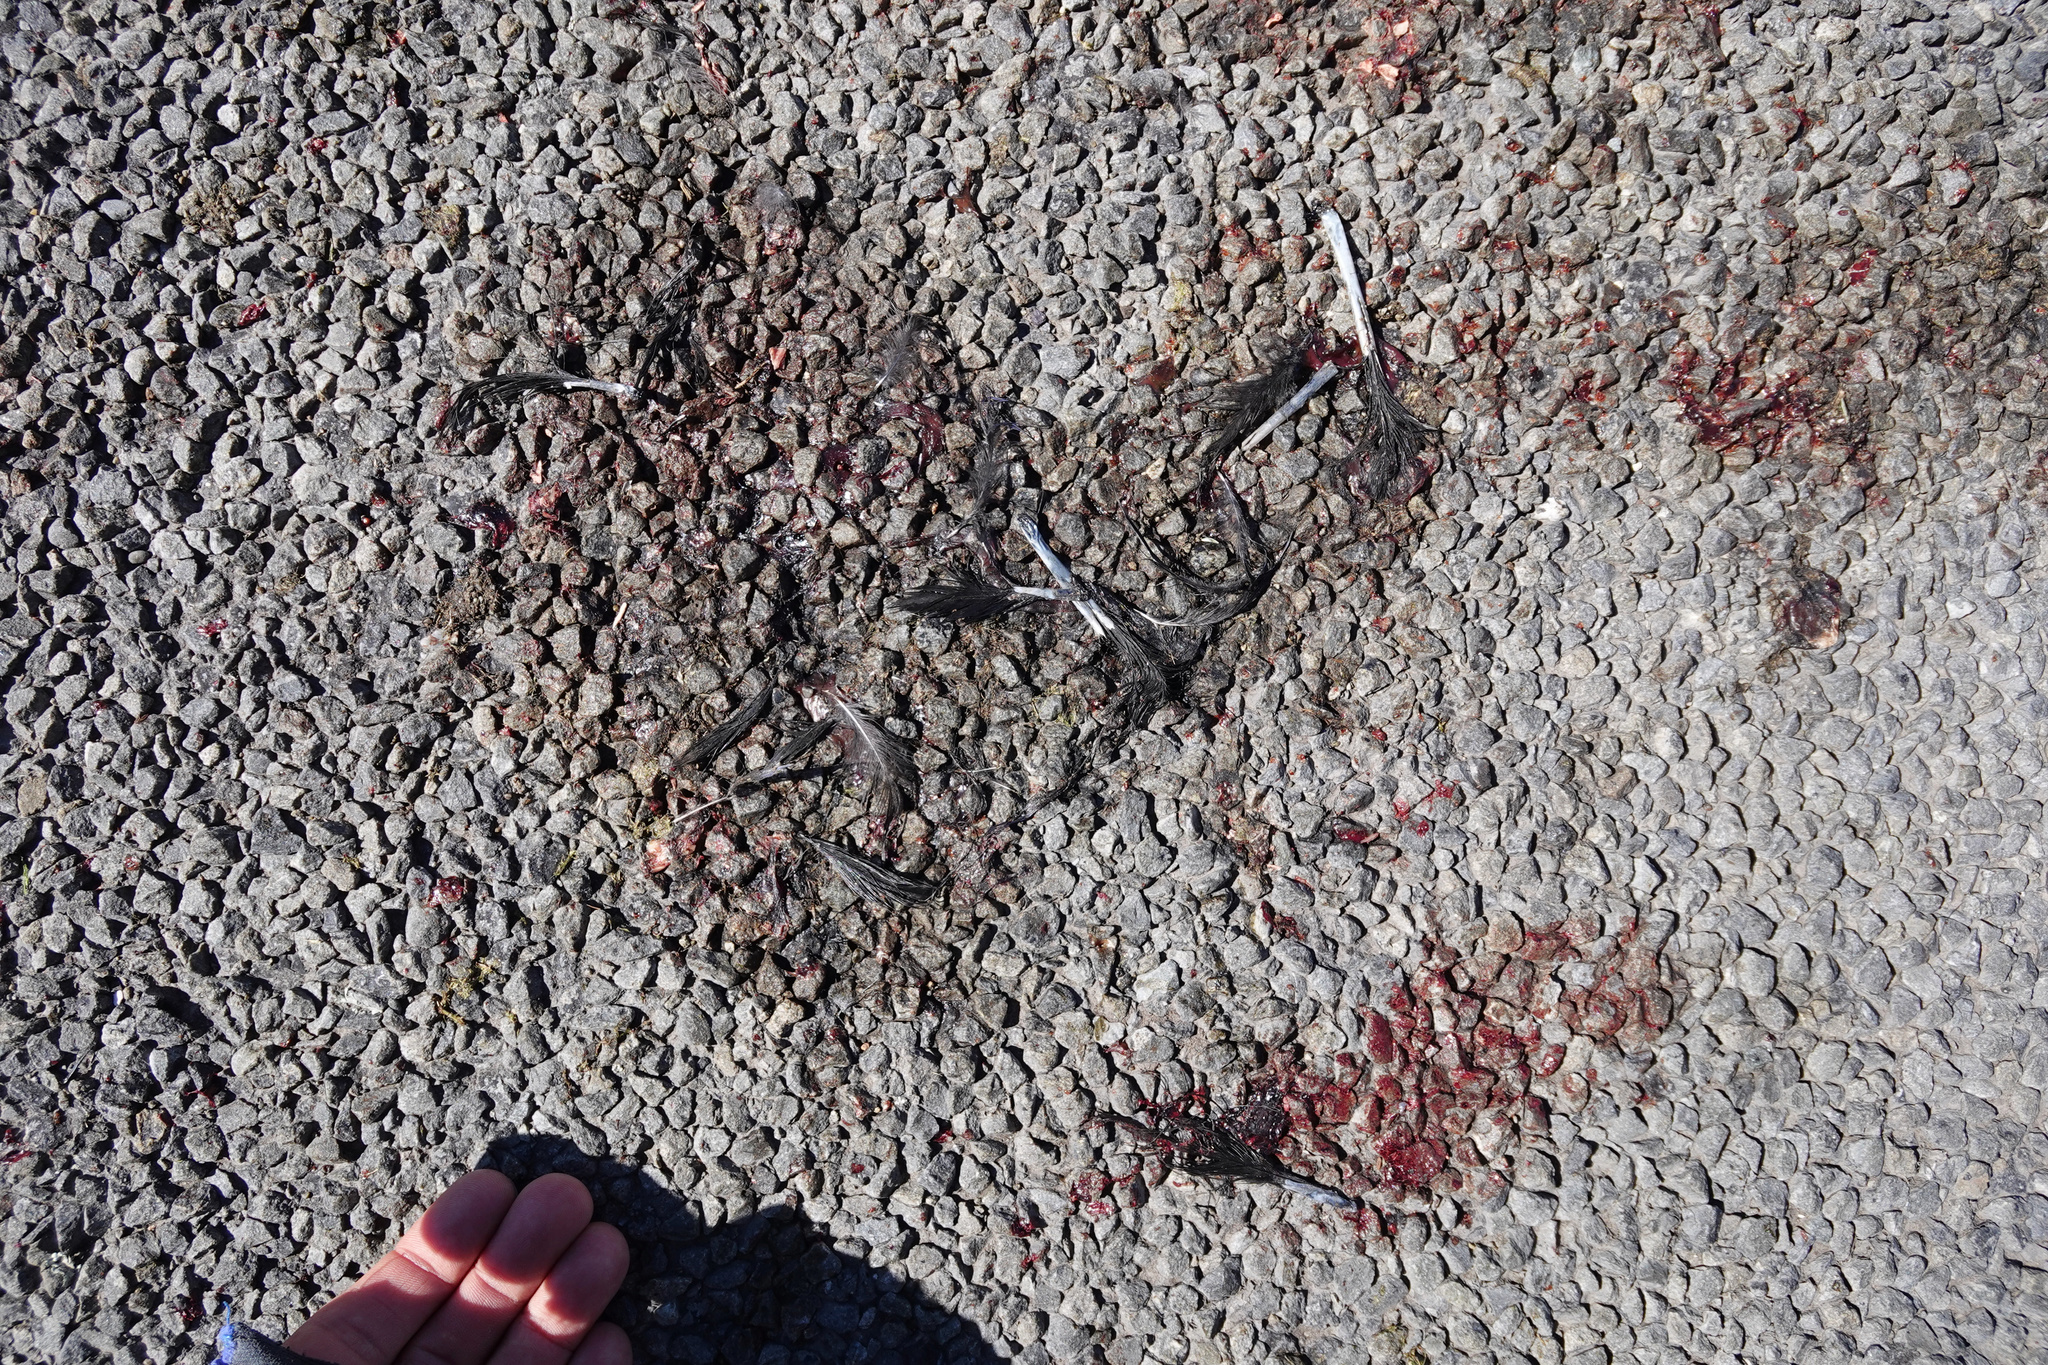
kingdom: Animalia
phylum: Chordata
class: Aves
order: Gruiformes
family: Rallidae
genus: Porphyrio
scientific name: Porphyrio melanotus
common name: Australasian swamphen
